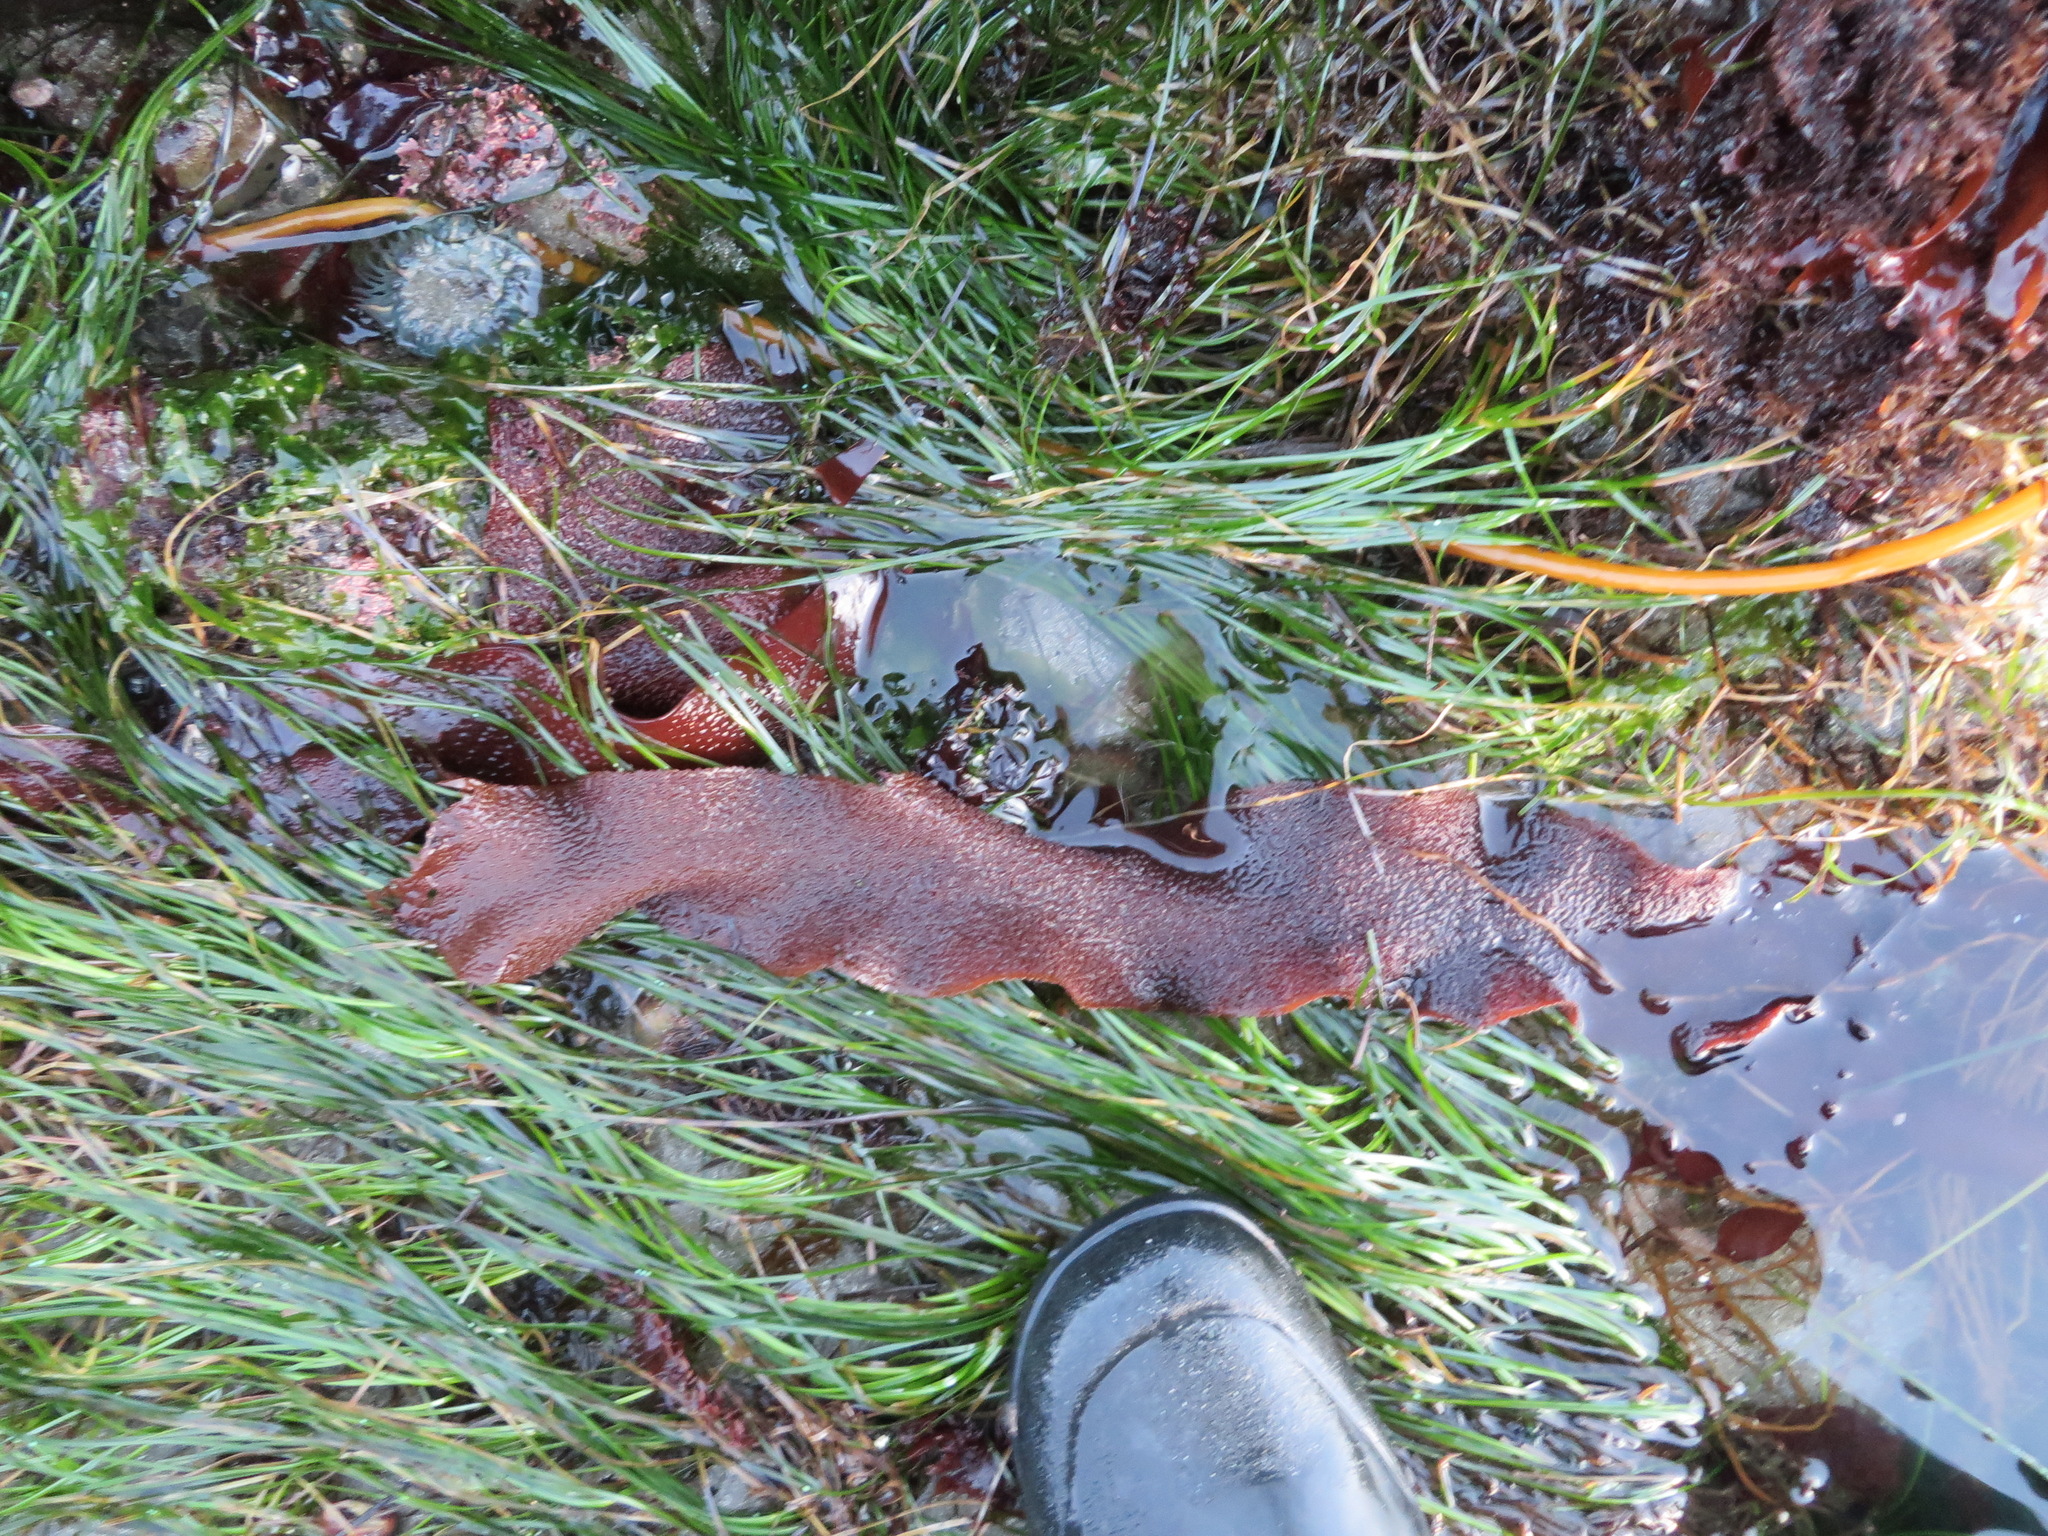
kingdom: Plantae
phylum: Rhodophyta
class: Florideophyceae
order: Gigartinales
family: Gigartinaceae
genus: Chondracanthus
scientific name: Chondracanthus exasperatus
